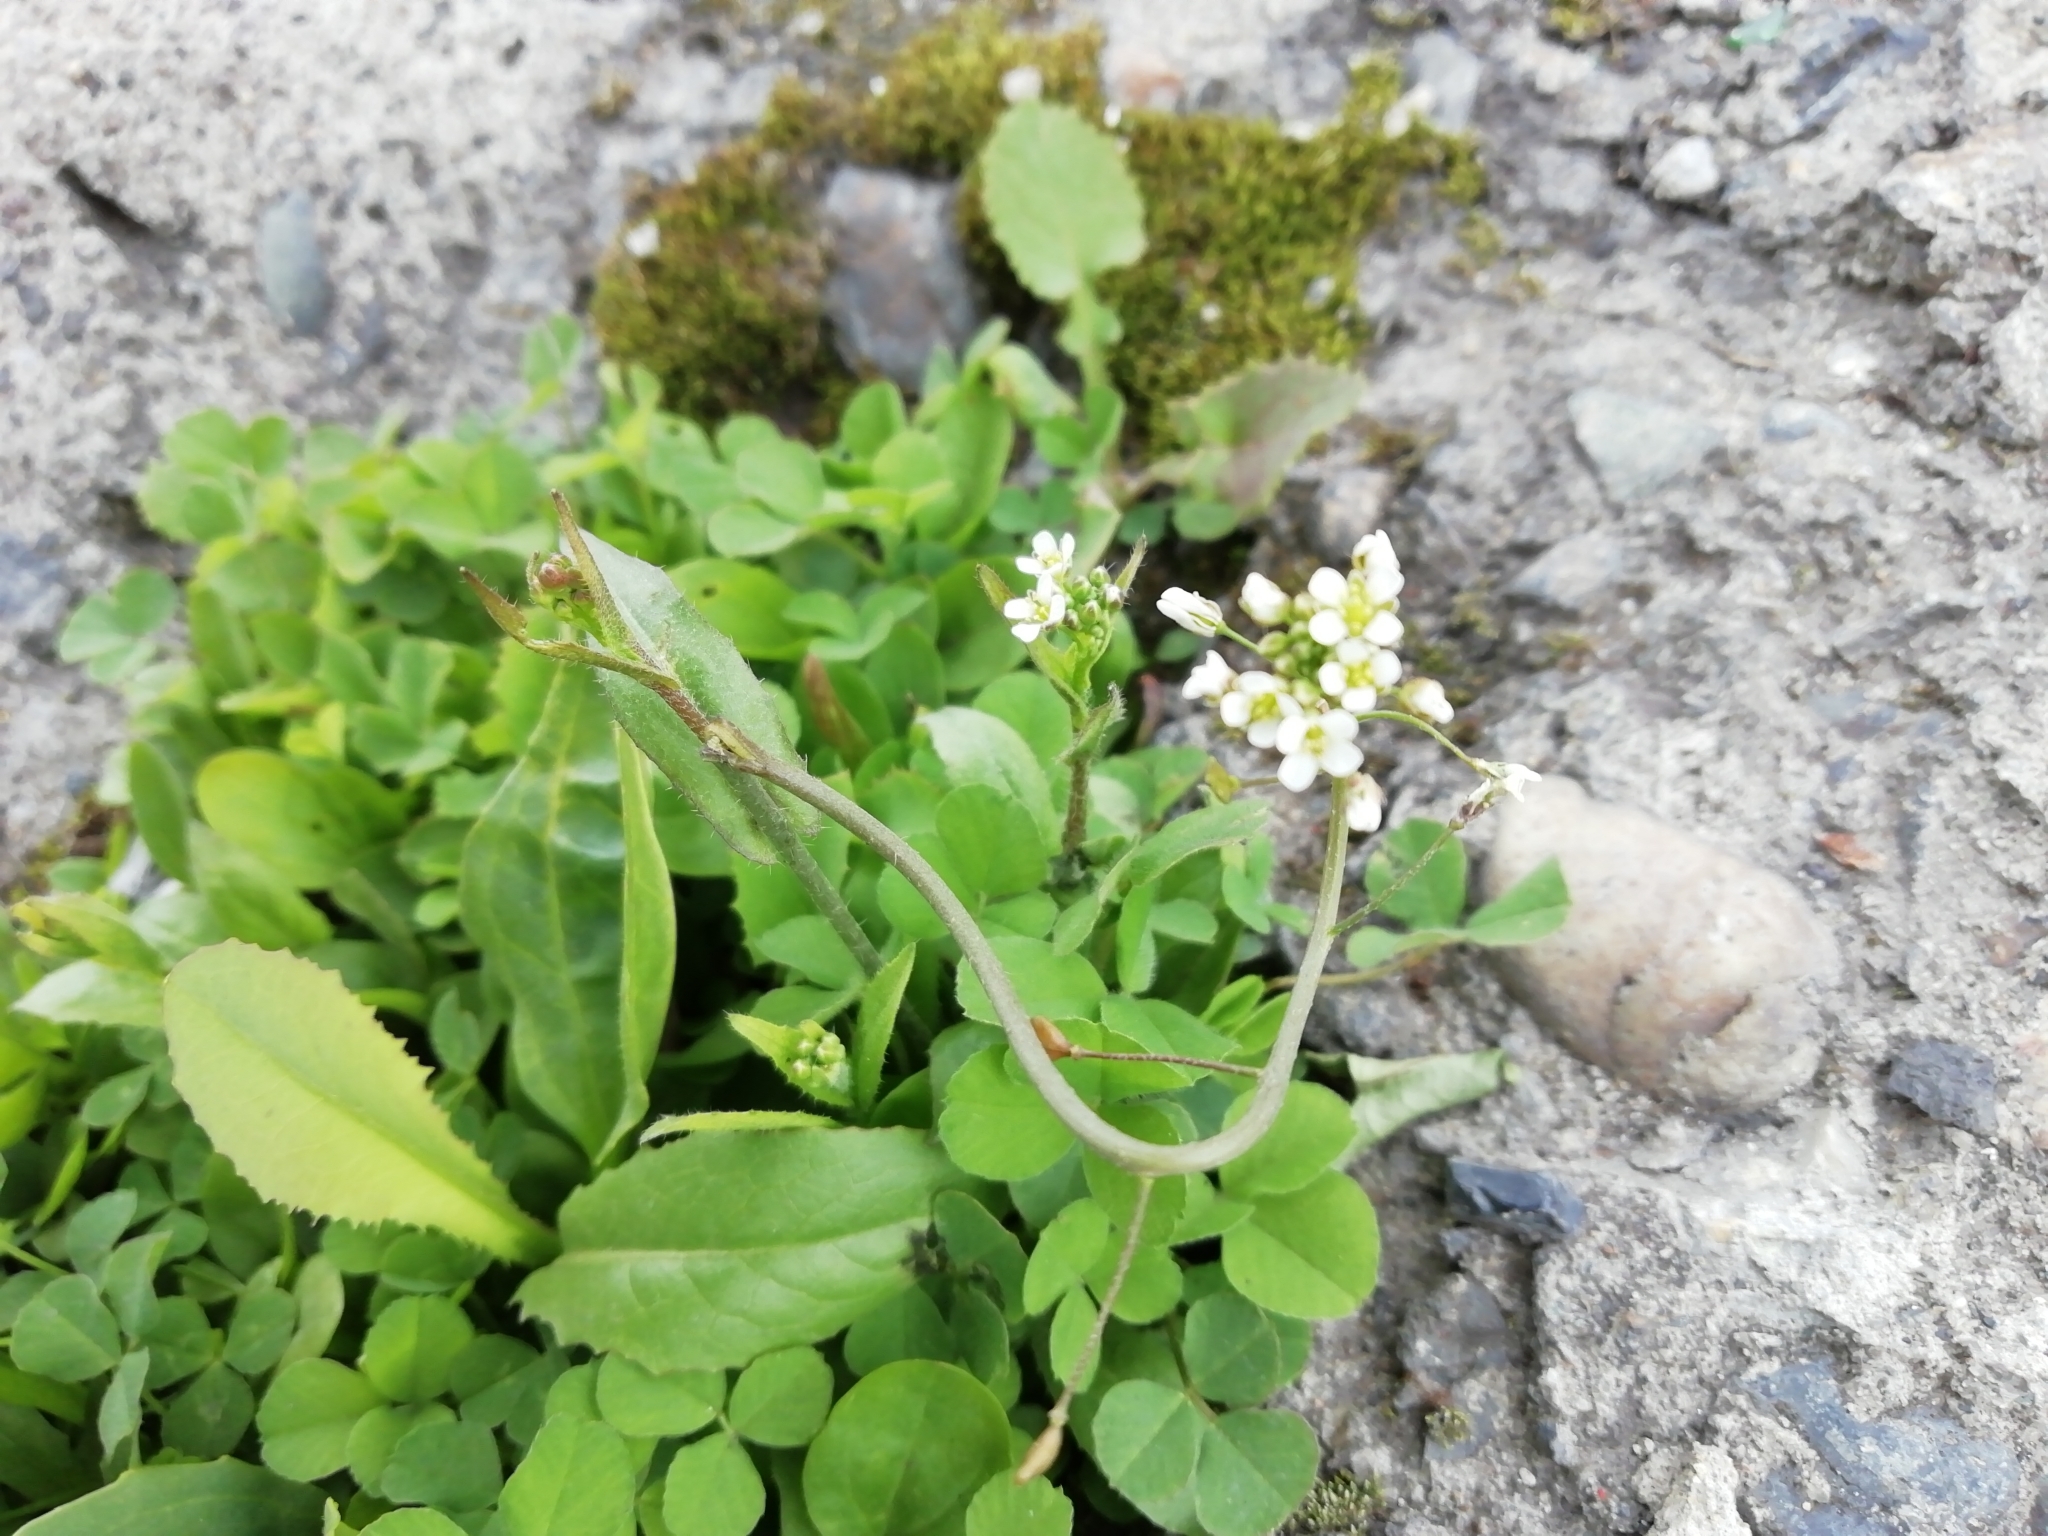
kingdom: Plantae
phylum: Tracheophyta
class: Magnoliopsida
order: Brassicales
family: Brassicaceae
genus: Capsella
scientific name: Capsella bursa-pastoris
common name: Shepherd's purse
